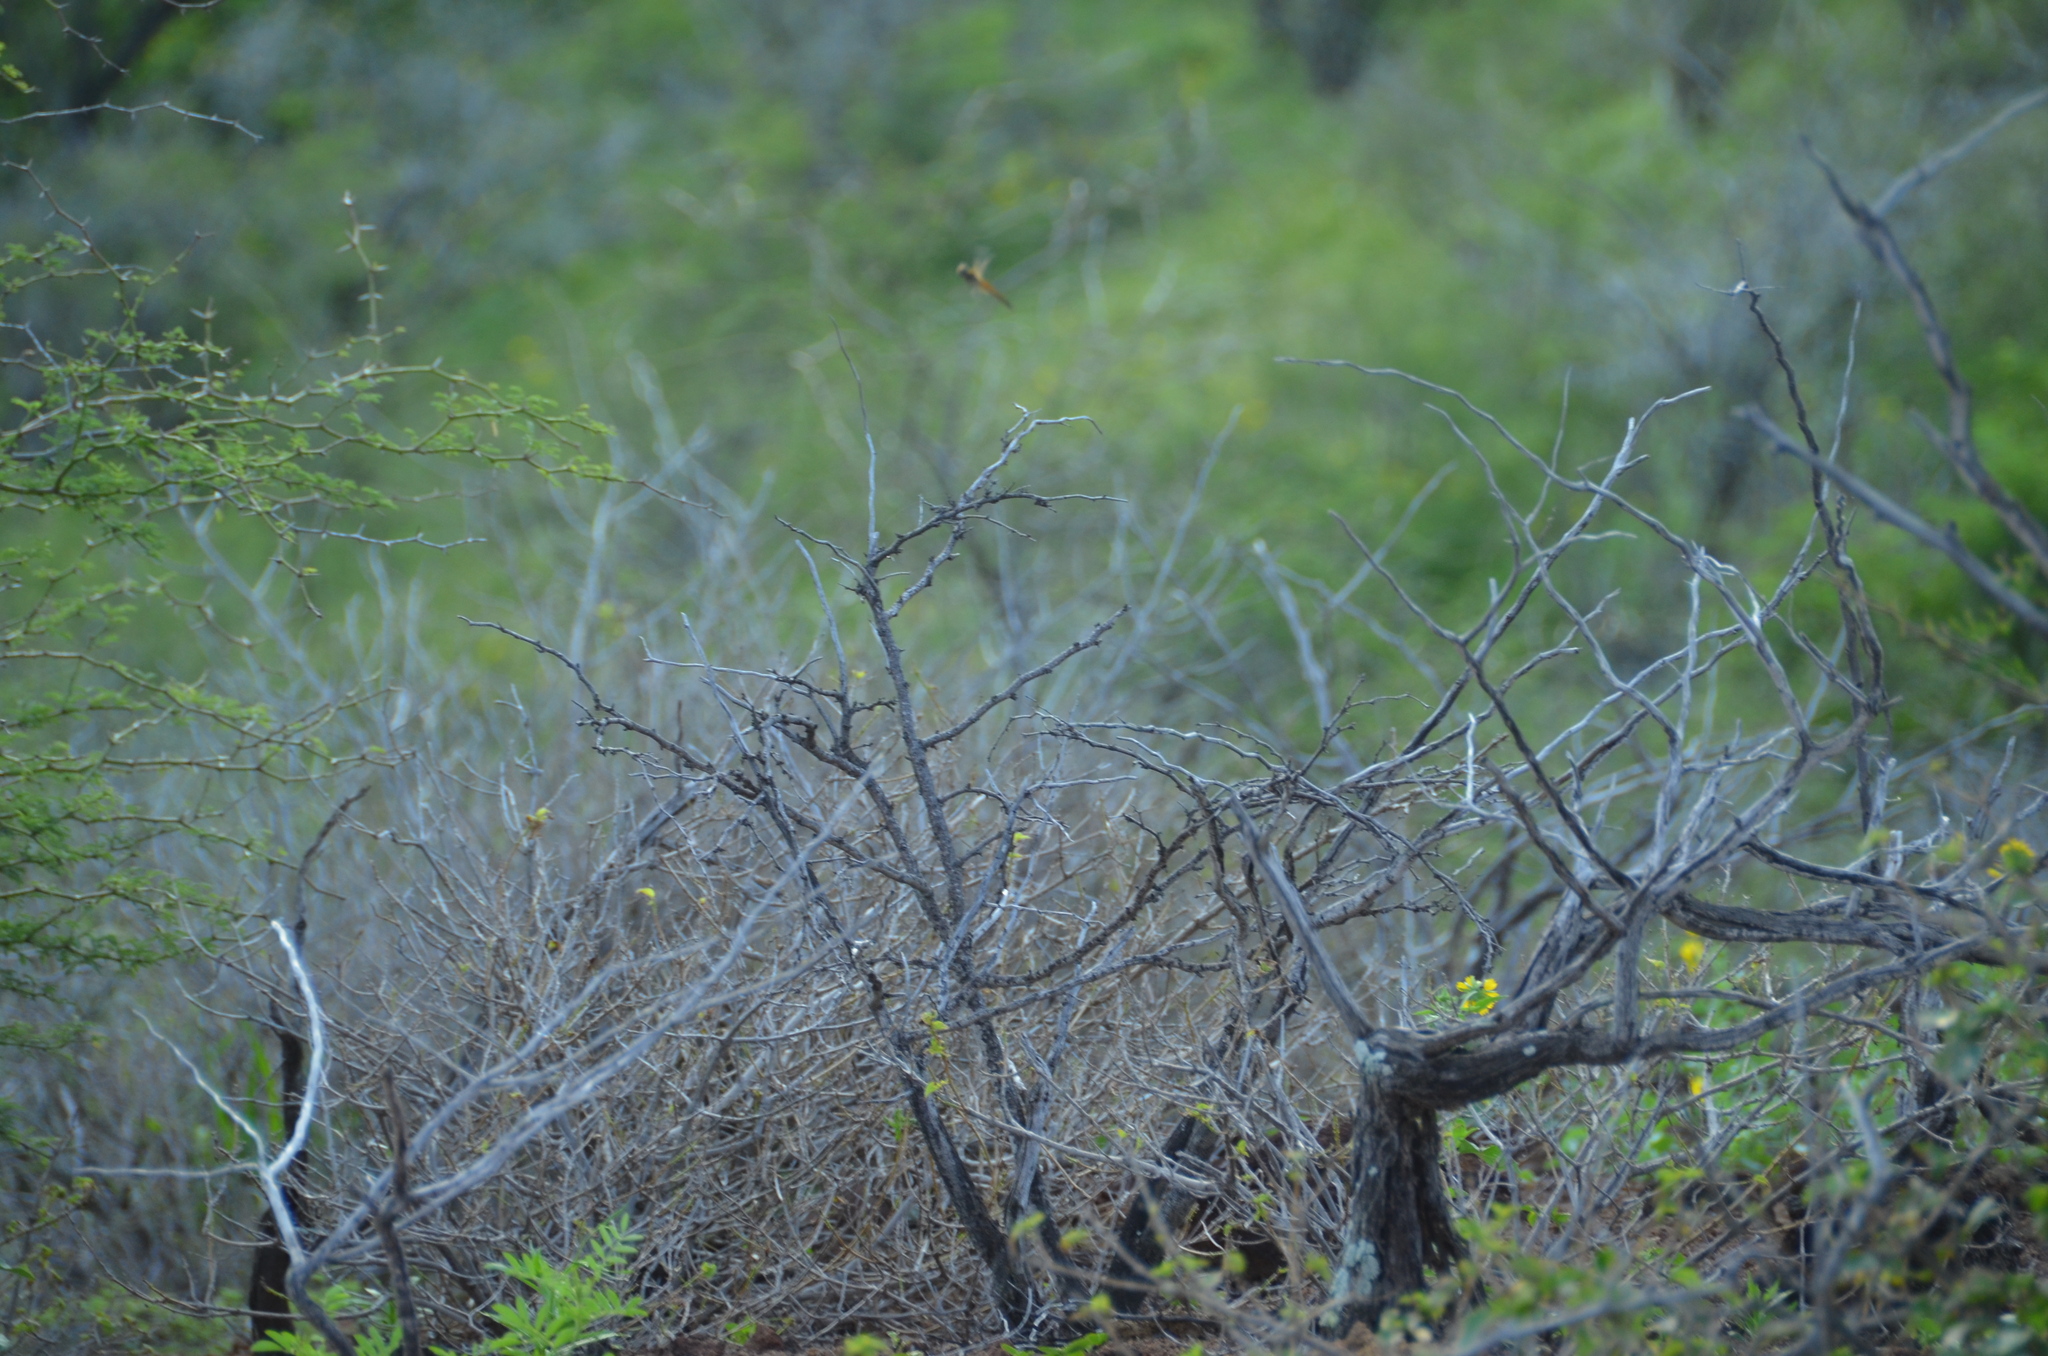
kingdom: Animalia
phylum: Arthropoda
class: Insecta
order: Odonata
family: Libellulidae
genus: Pantala
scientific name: Pantala flavescens
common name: Wandering glider
